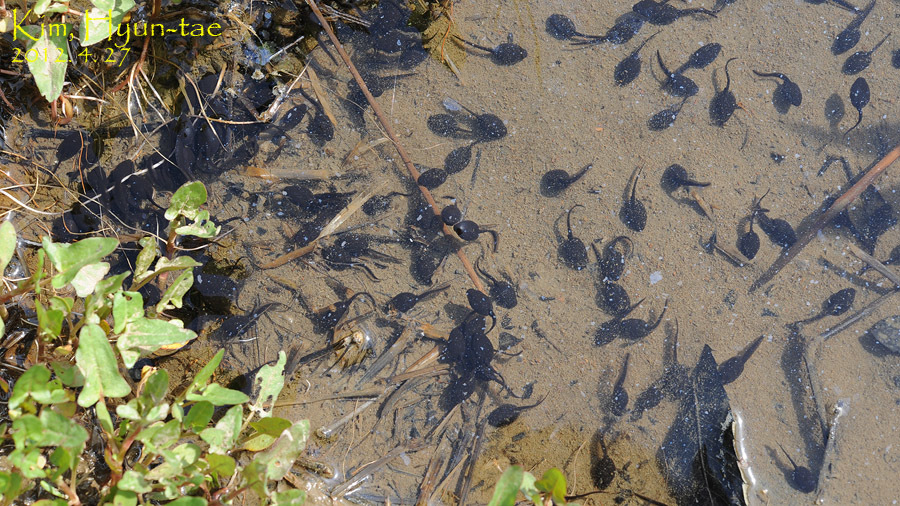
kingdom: Animalia
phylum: Chordata
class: Amphibia
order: Anura
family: Bufonidae
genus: Bufo
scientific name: Bufo gargarizans
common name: Asiatic toad
